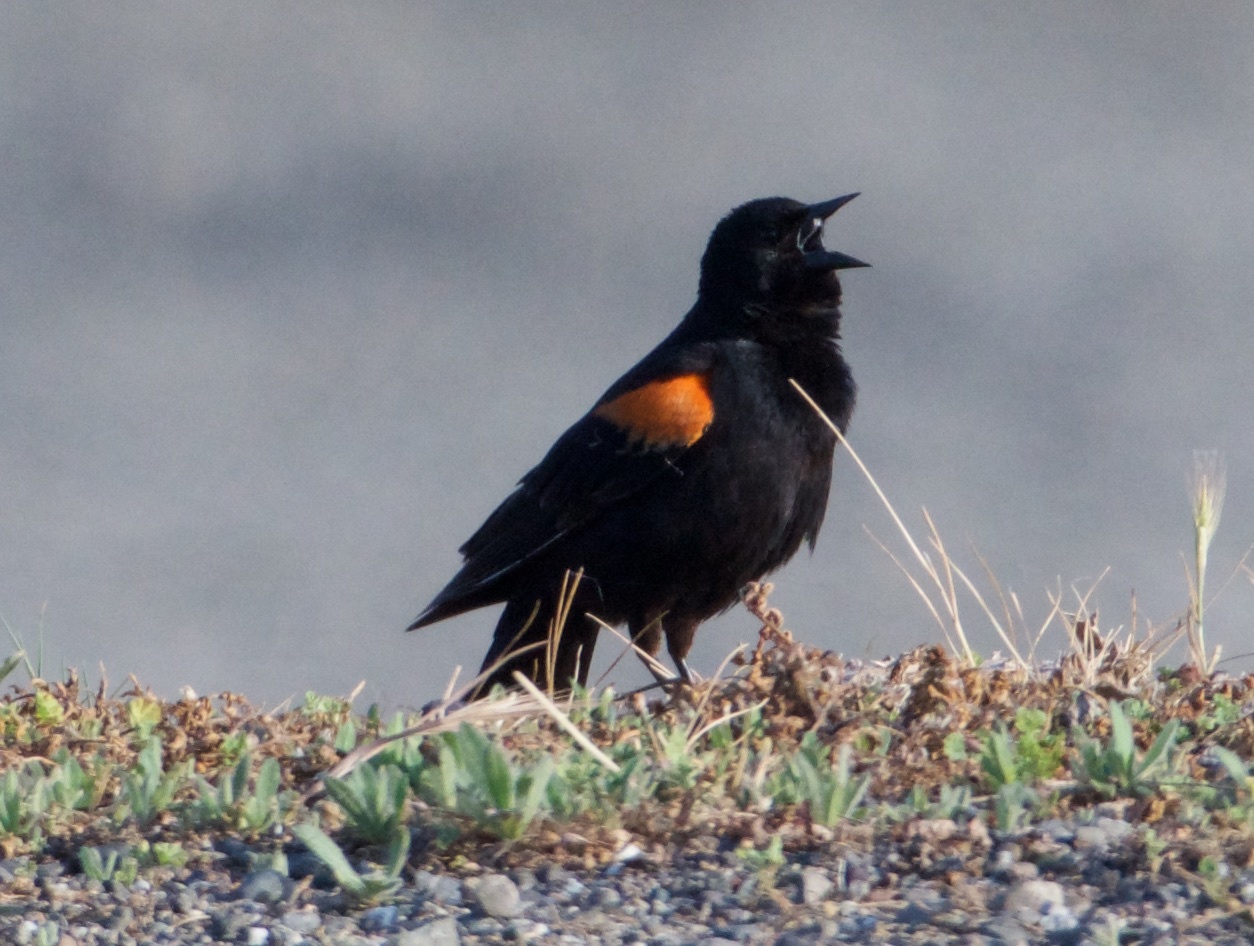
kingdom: Animalia
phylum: Chordata
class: Aves
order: Passeriformes
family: Icteridae
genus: Agelaius
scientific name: Agelaius phoeniceus
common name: Red-winged blackbird
